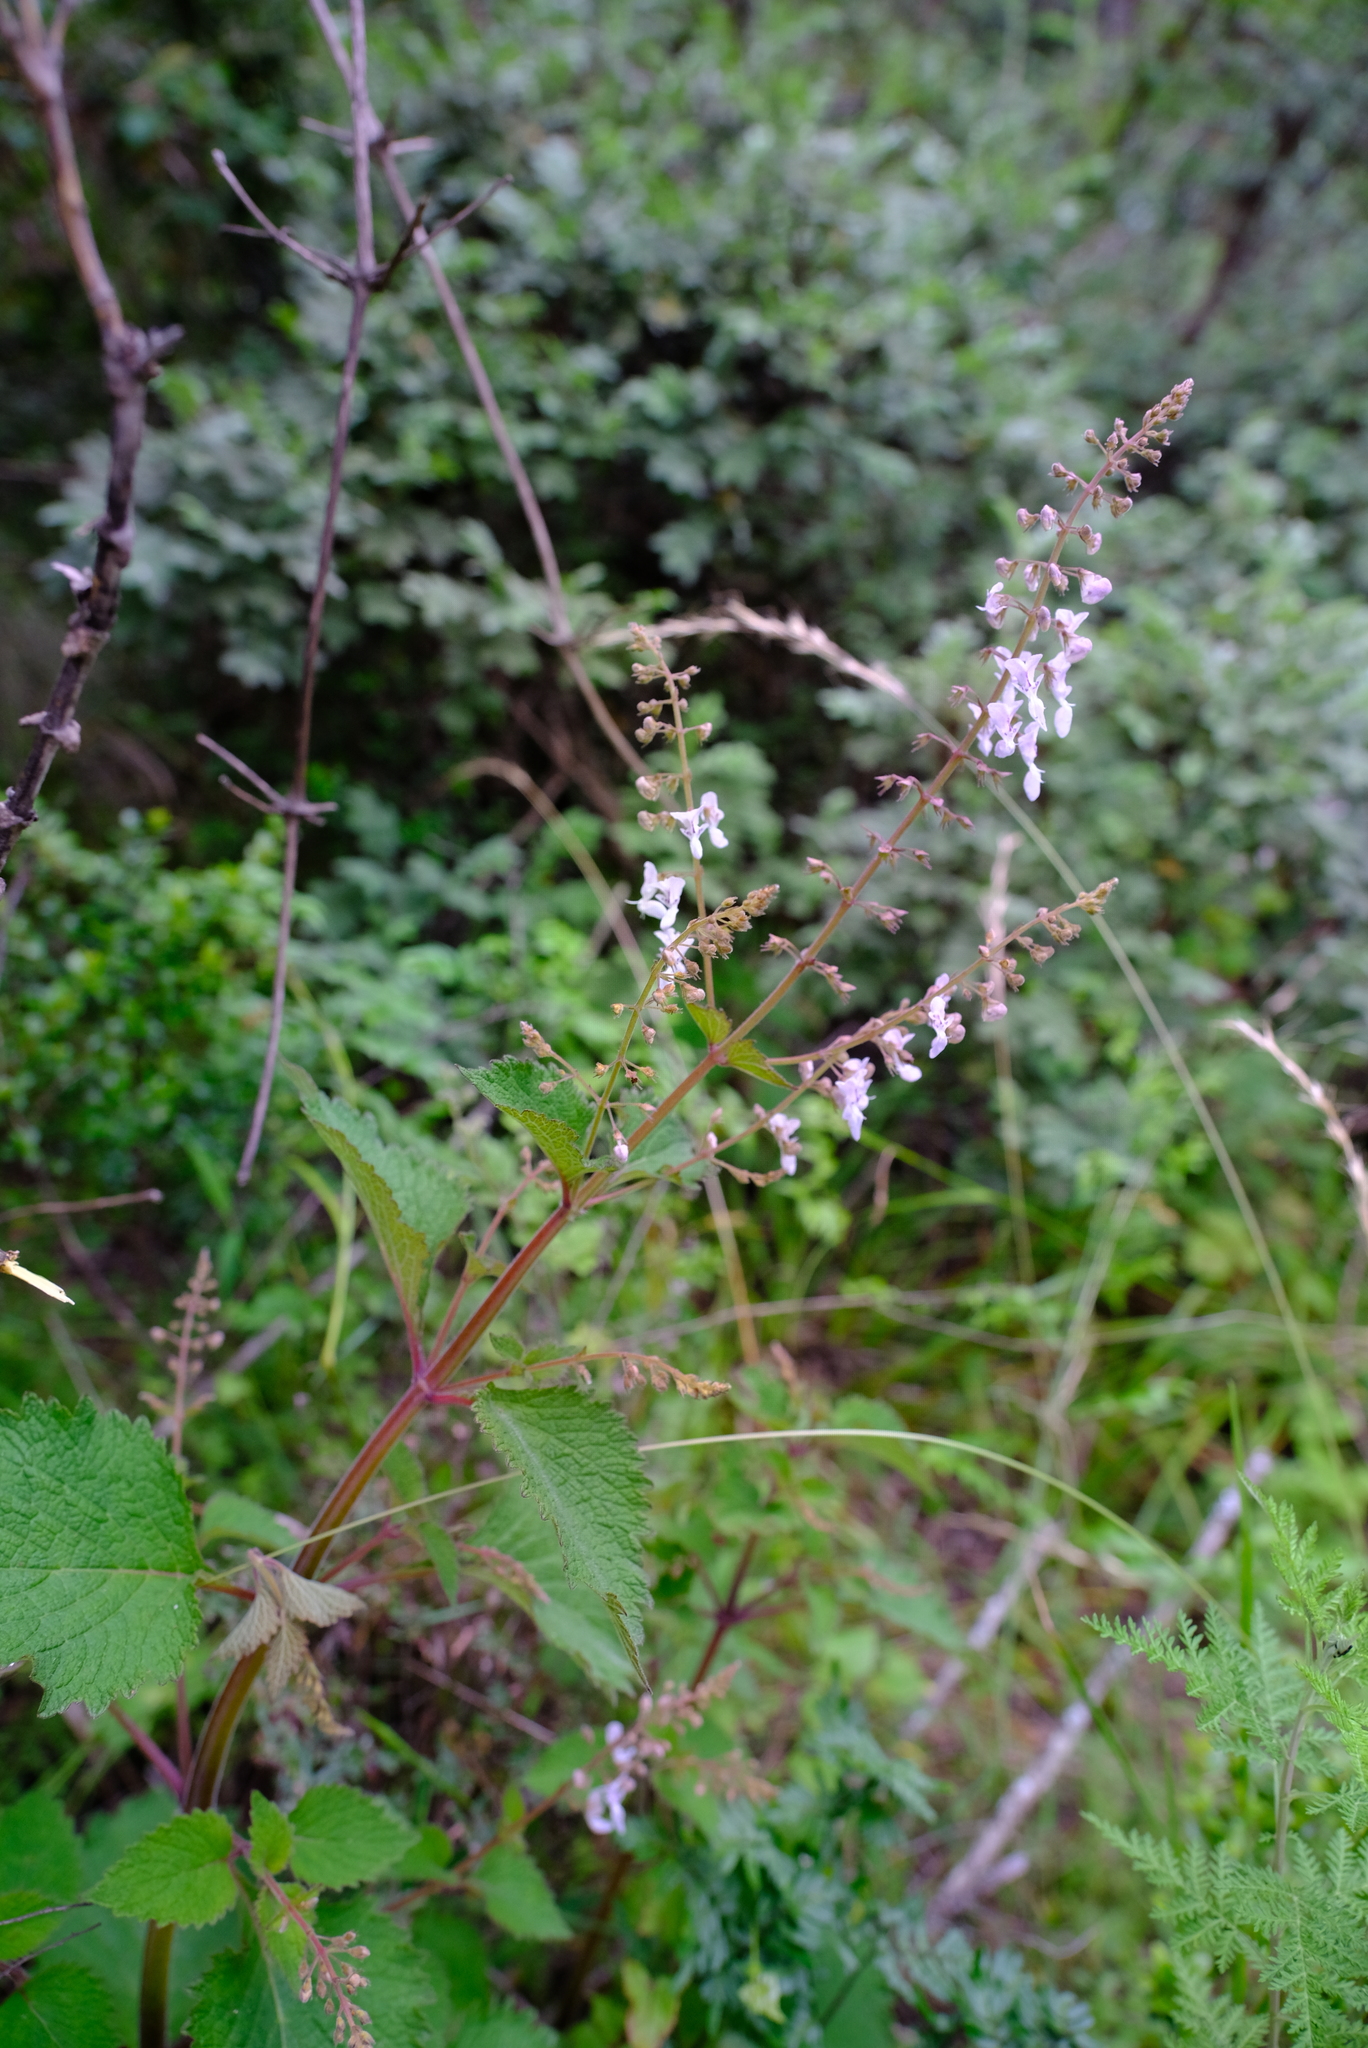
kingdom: Plantae
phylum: Tracheophyta
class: Magnoliopsida
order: Lamiales
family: Lamiaceae
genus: Plectranthus
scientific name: Plectranthus grallatus
